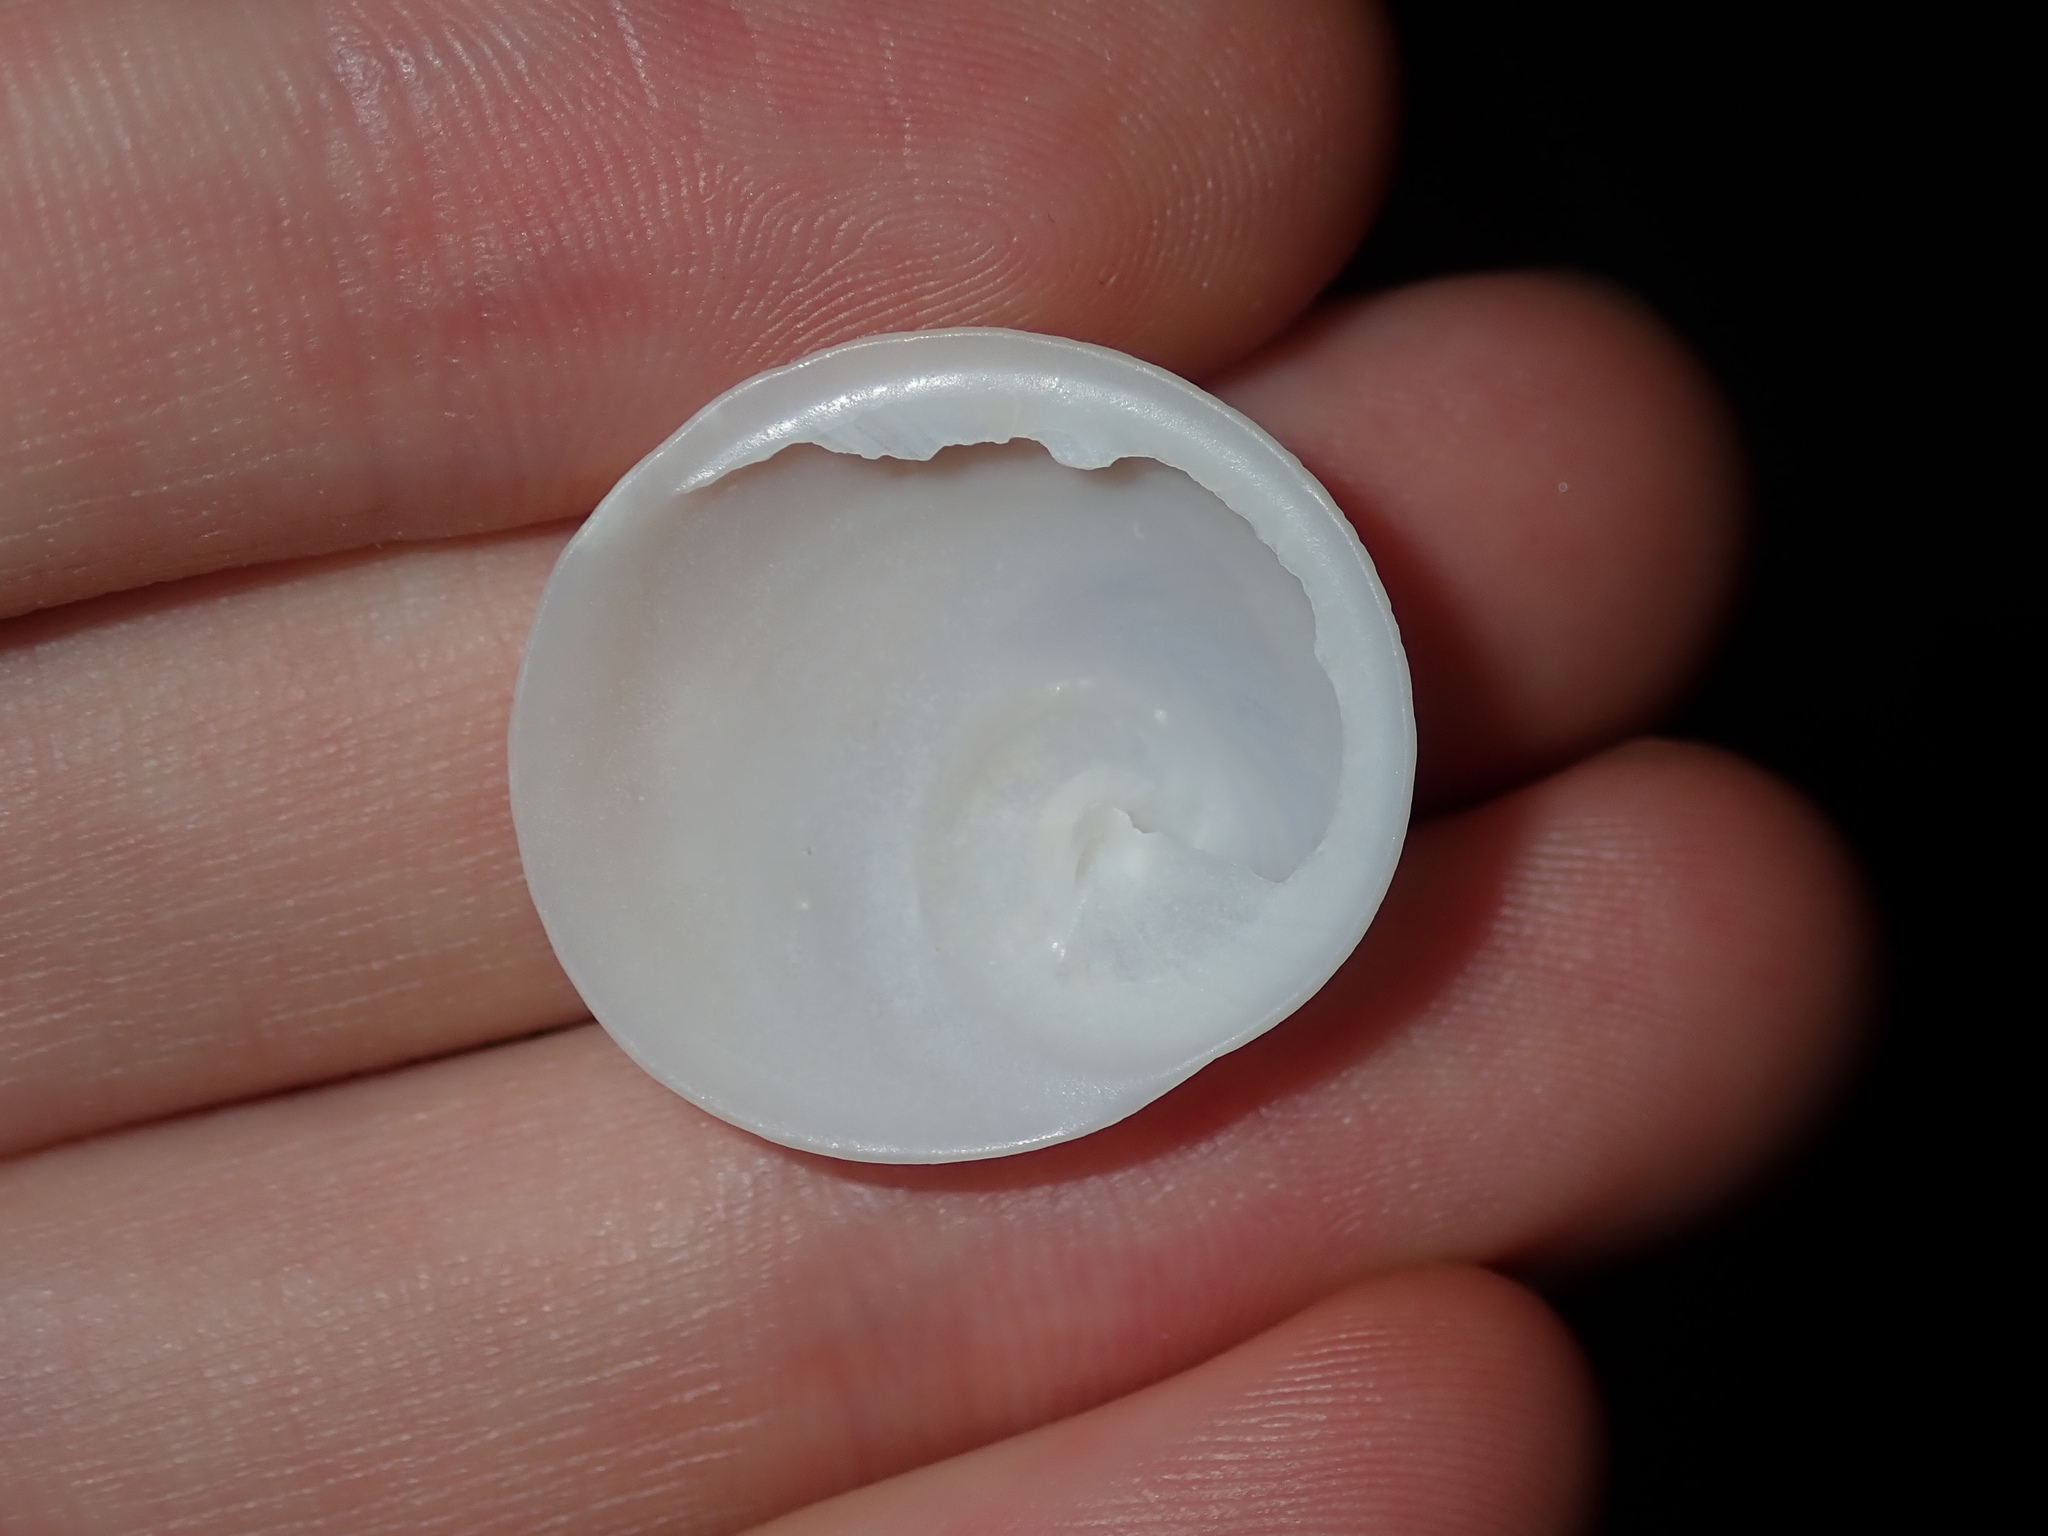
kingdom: Animalia
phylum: Mollusca
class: Gastropoda
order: Littorinimorpha
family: Calyptraeidae
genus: Sigapatella
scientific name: Sigapatella calyptraeformis
